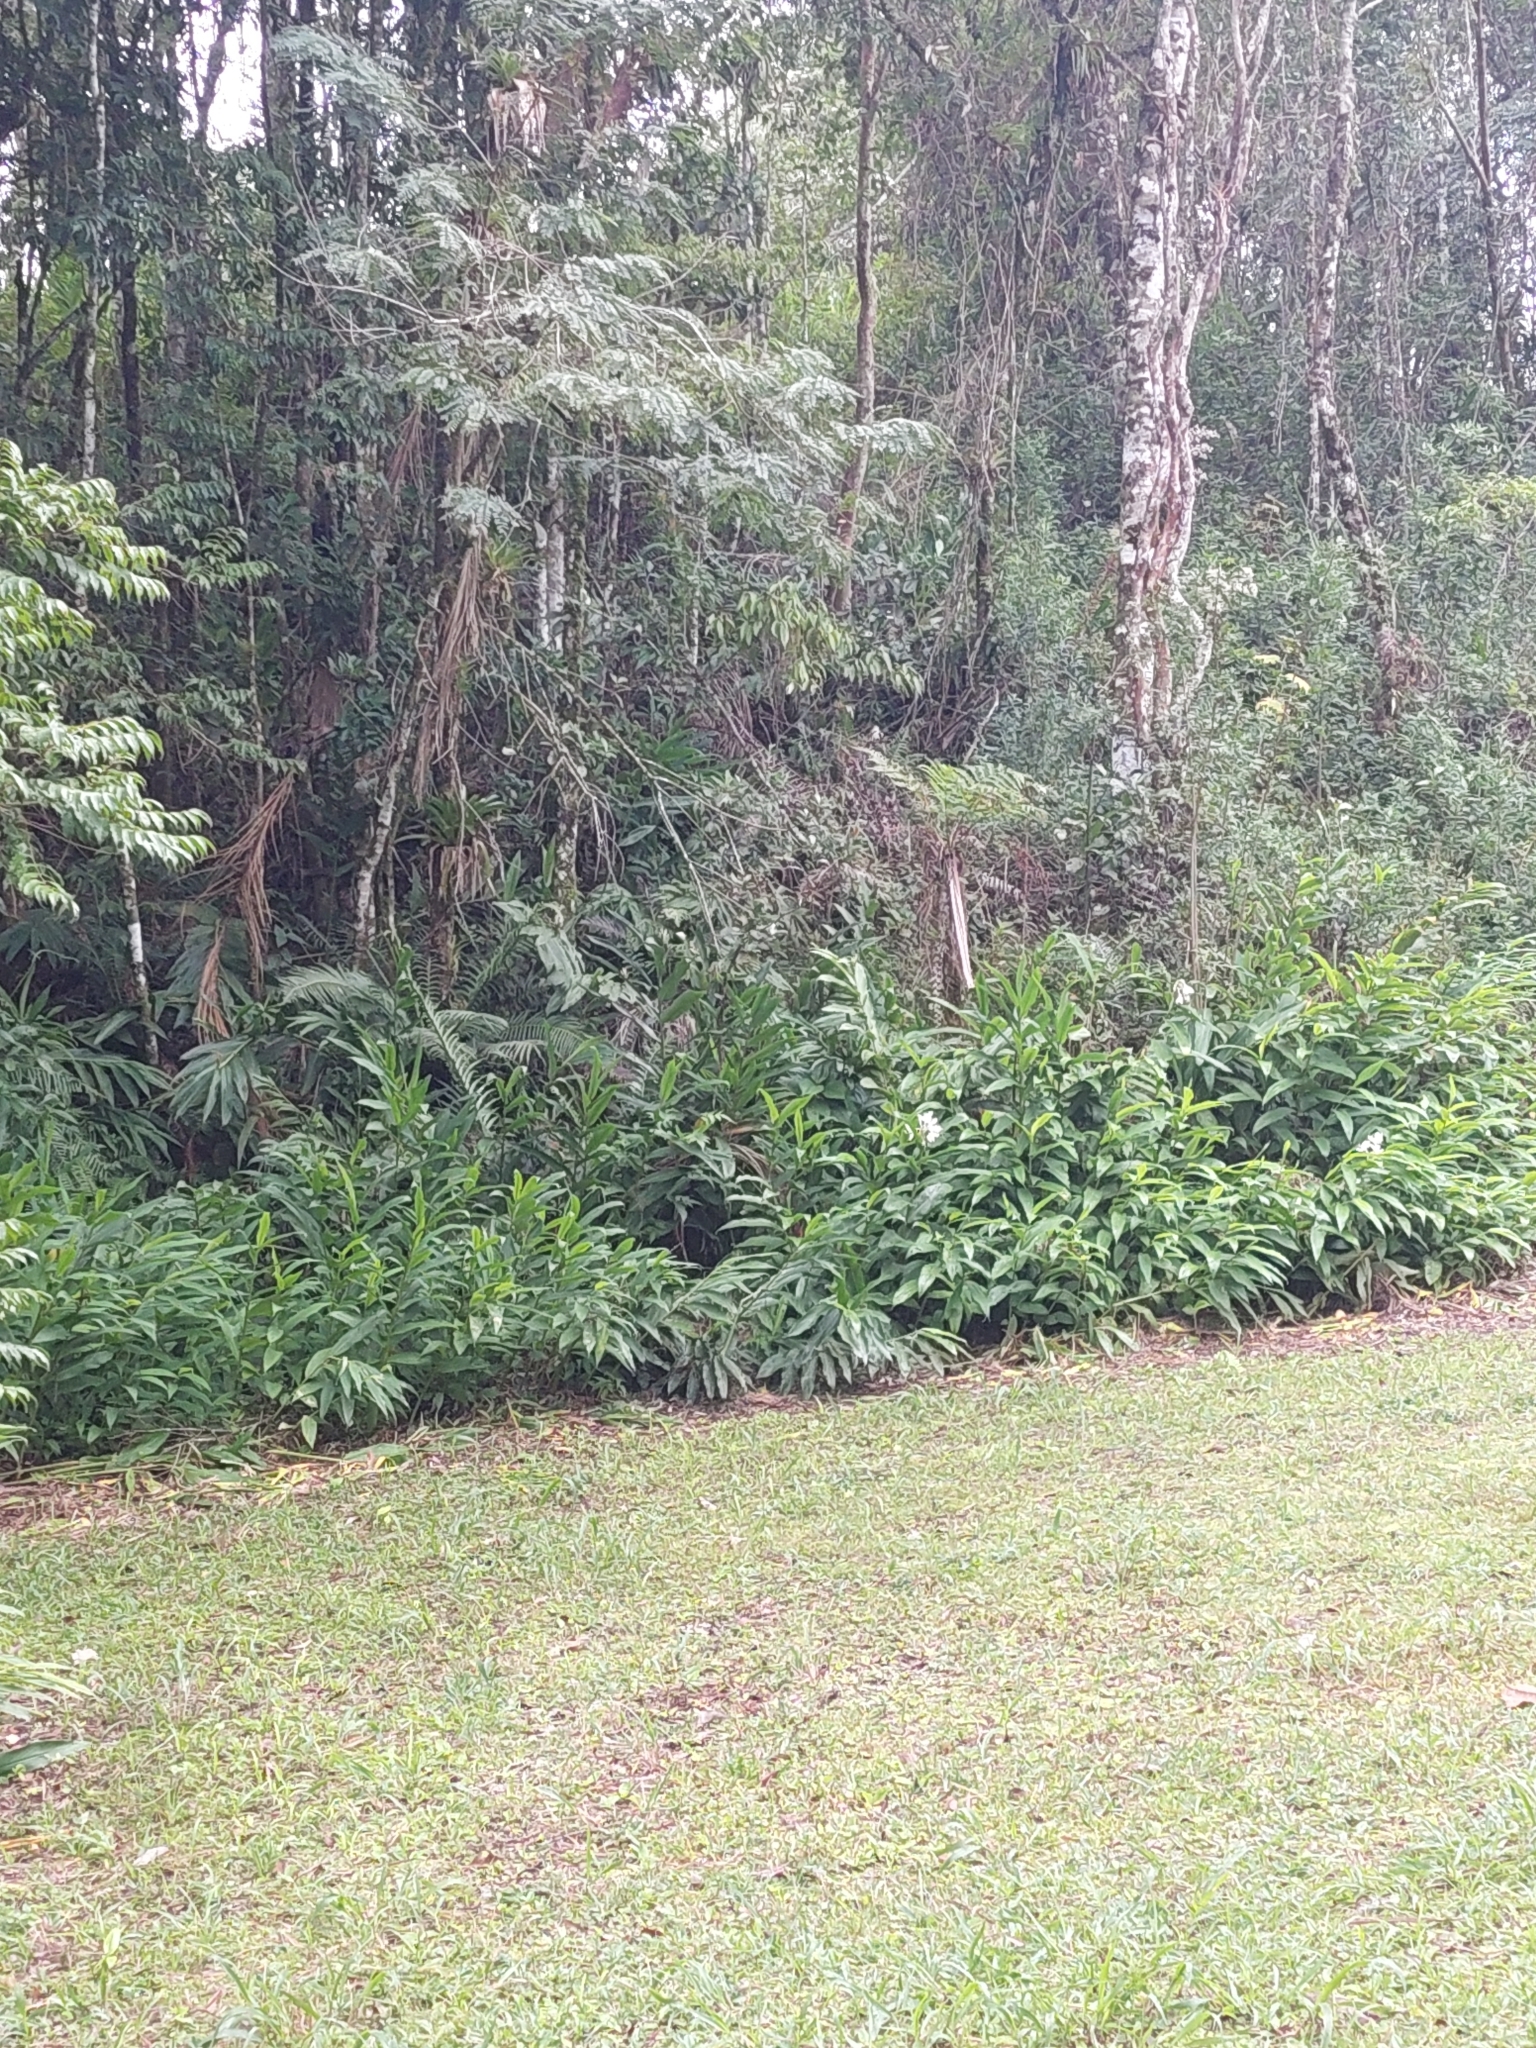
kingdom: Plantae
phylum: Tracheophyta
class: Liliopsida
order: Zingiberales
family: Zingiberaceae
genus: Hedychium
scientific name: Hedychium coronarium
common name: White garland-lily
